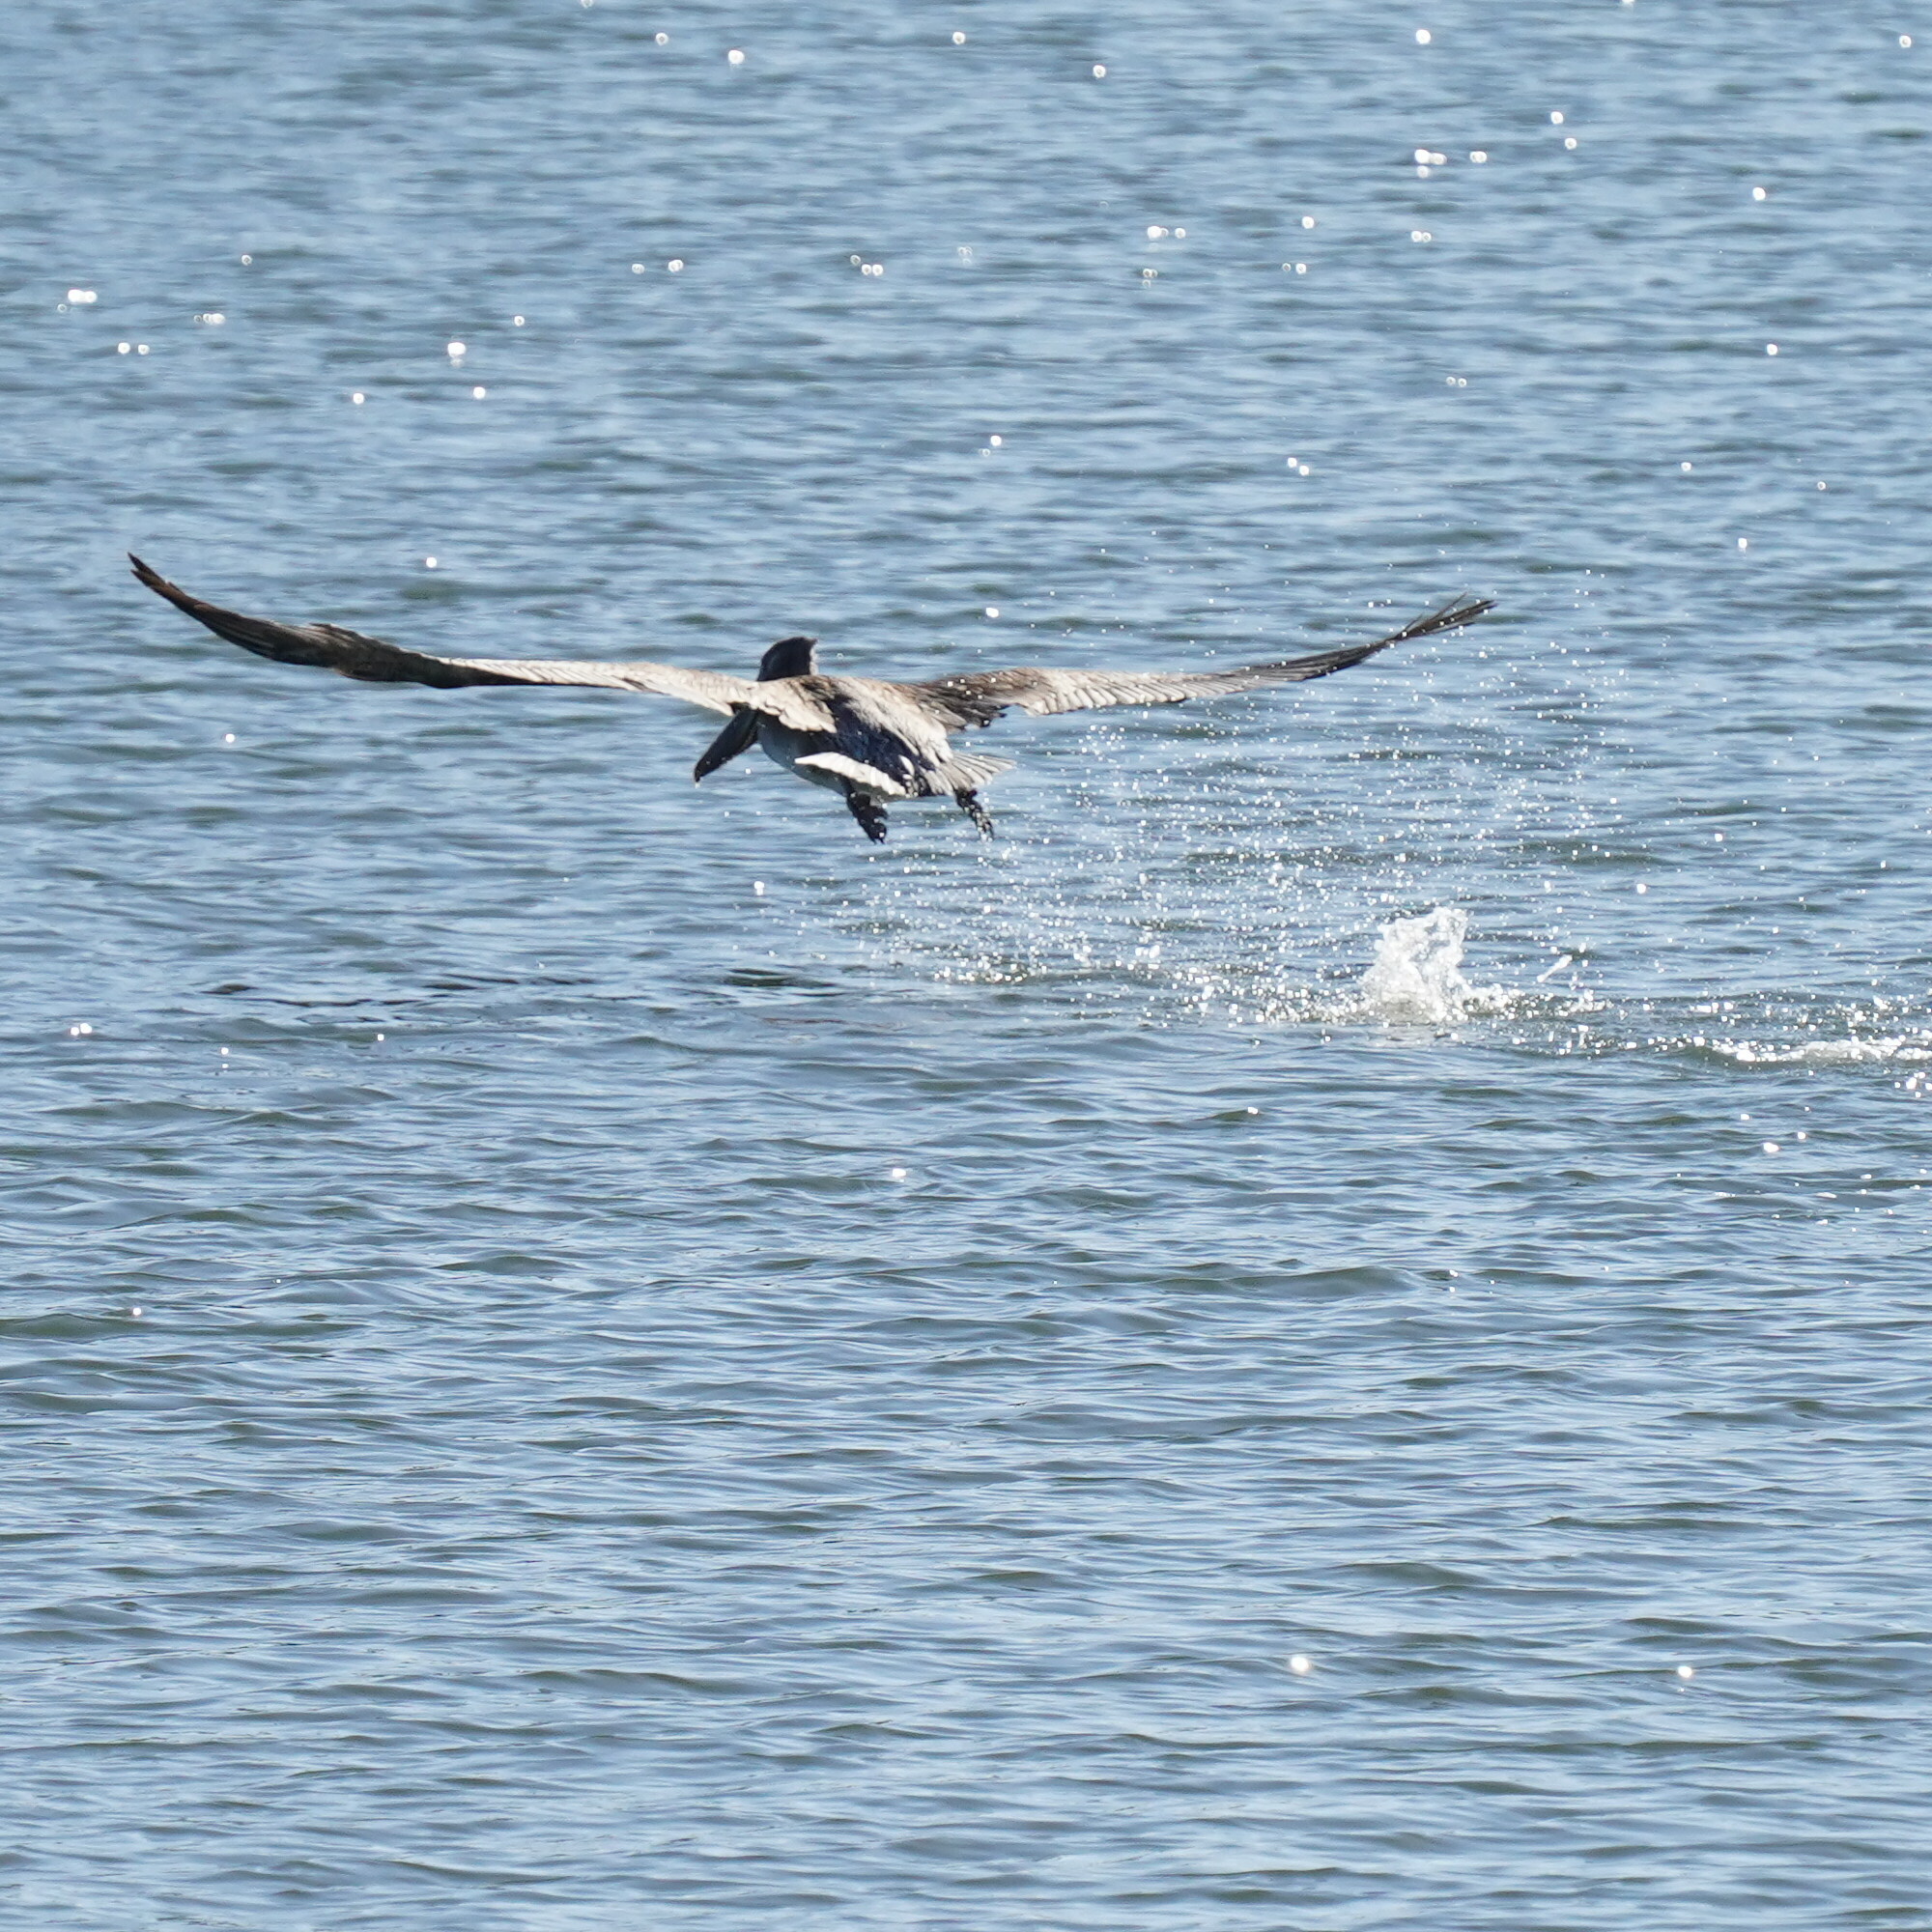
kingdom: Animalia
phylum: Chordata
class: Aves
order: Pelecaniformes
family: Pelecanidae
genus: Pelecanus
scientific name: Pelecanus occidentalis
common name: Brown pelican
